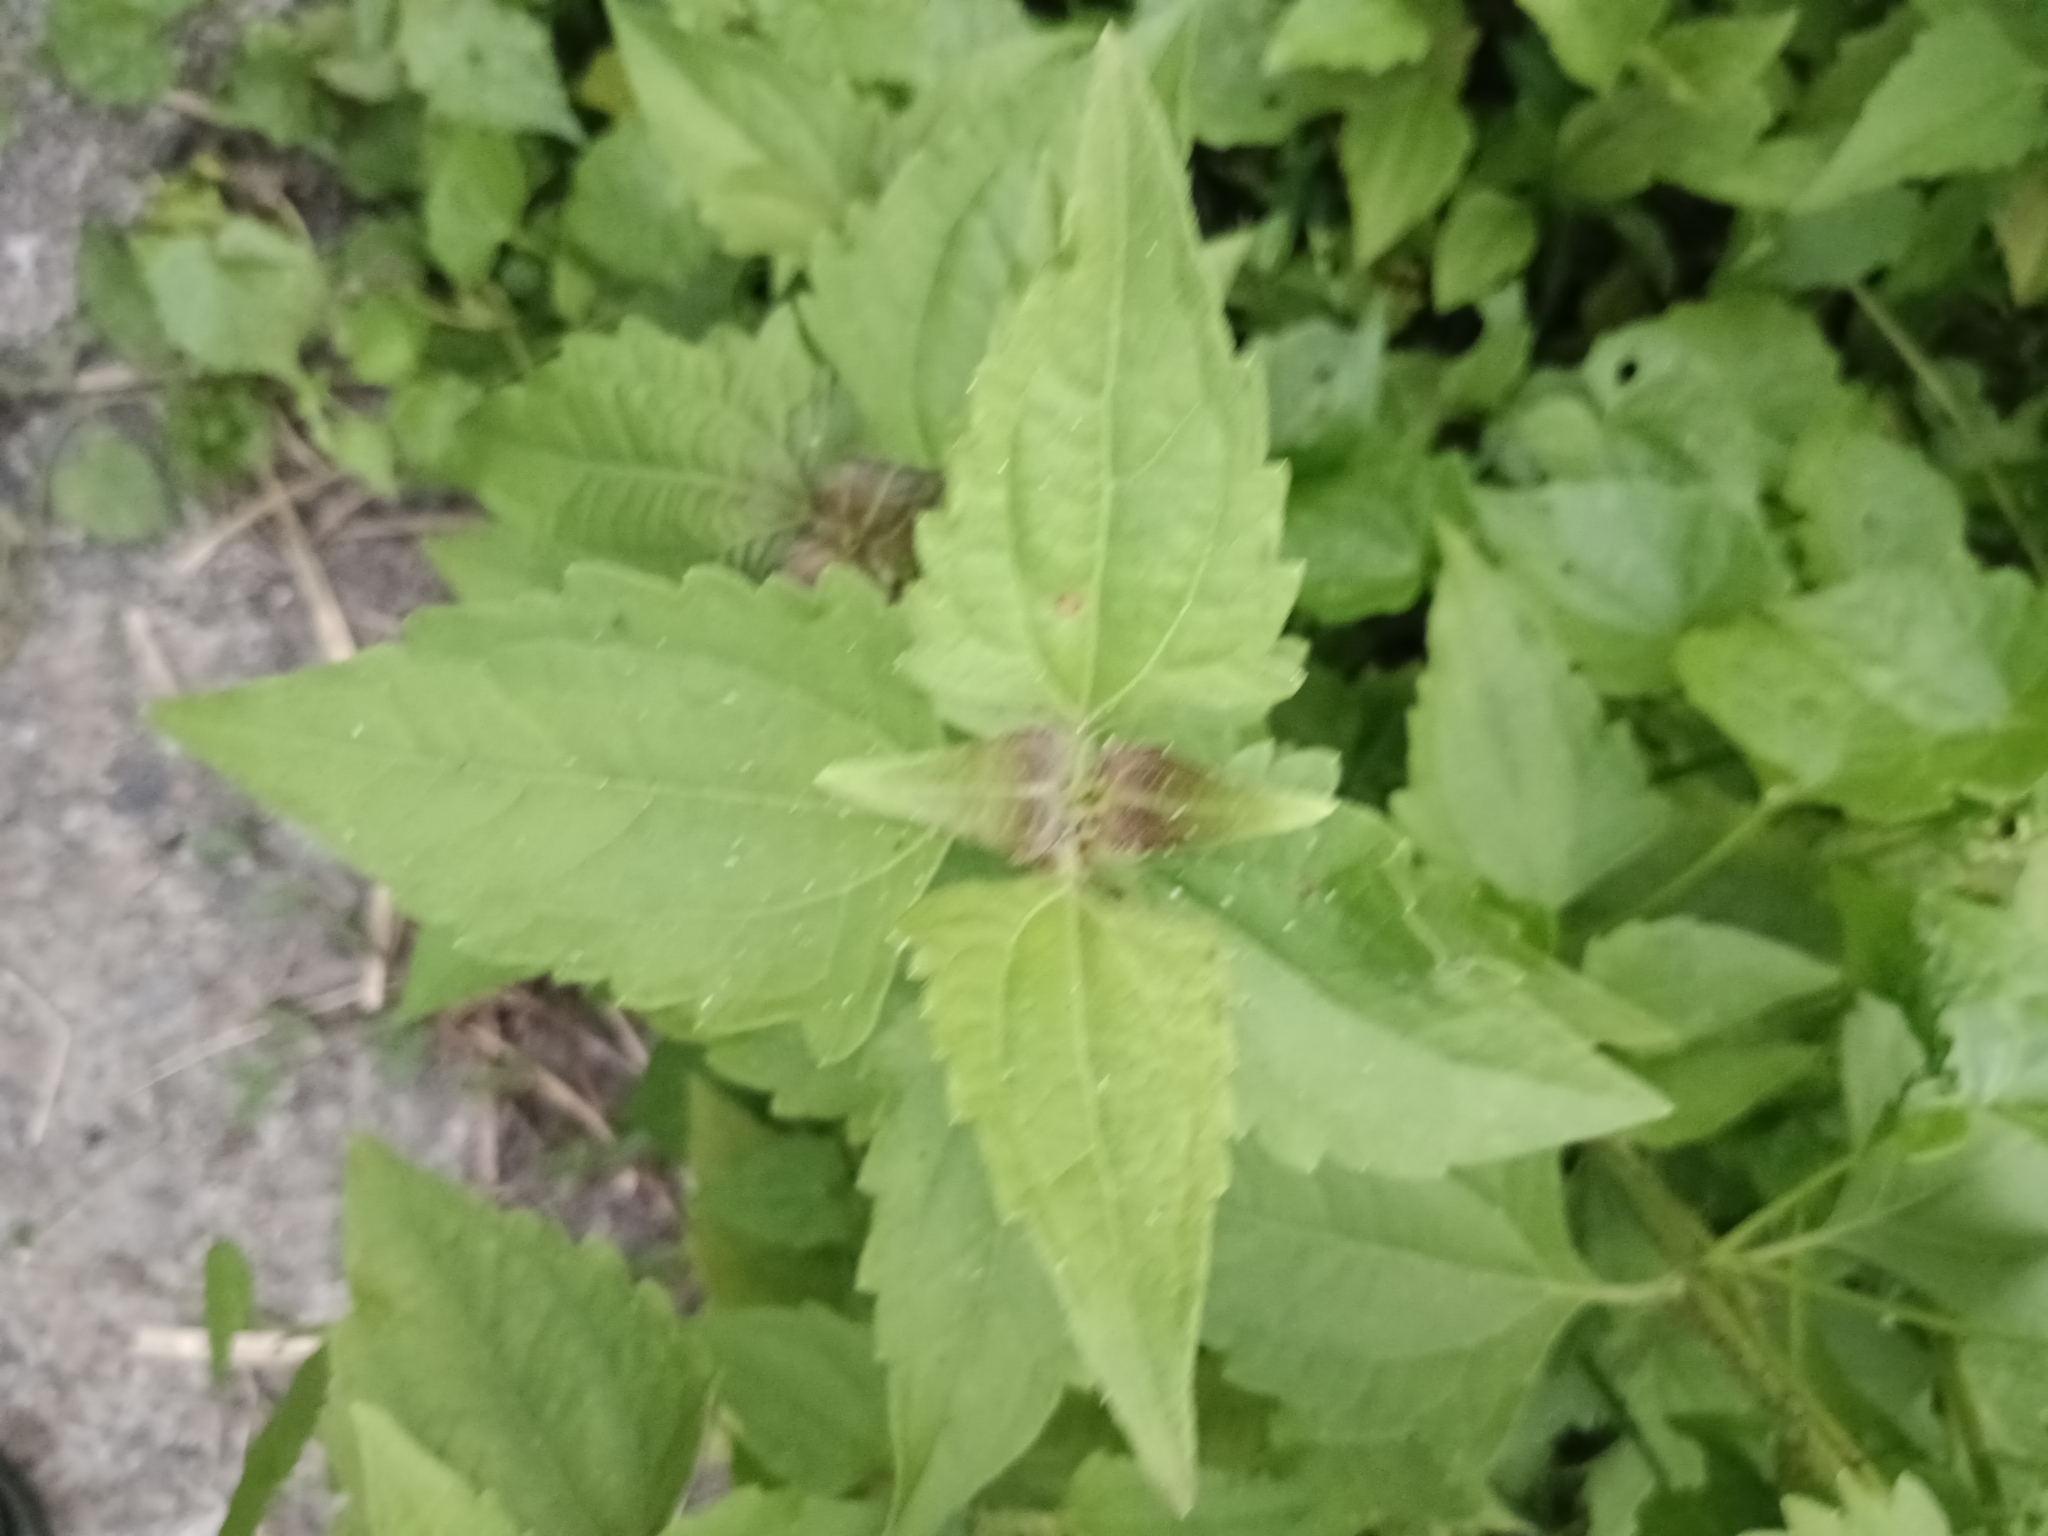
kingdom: Plantae
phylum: Tracheophyta
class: Magnoliopsida
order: Asterales
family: Asteraceae
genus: Chromolaena
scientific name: Chromolaena odorata
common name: Siamweed
